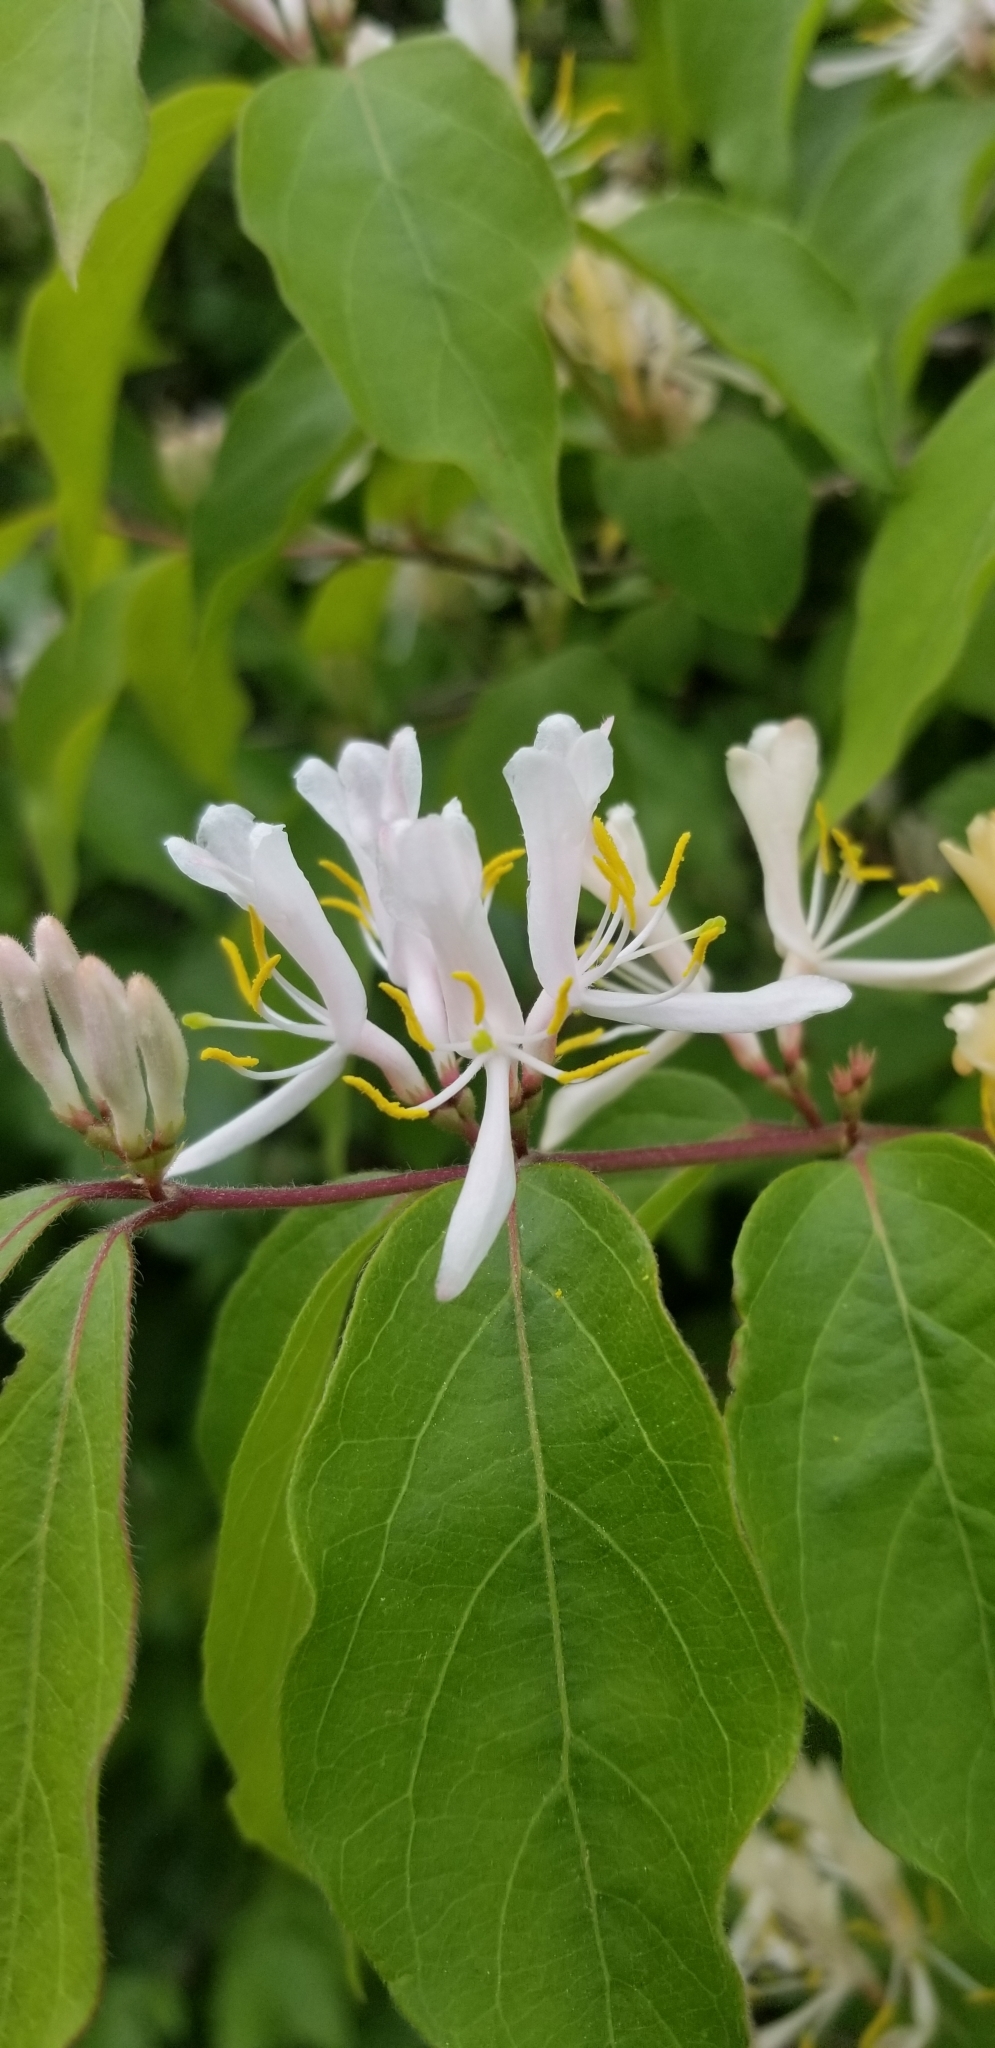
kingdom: Plantae
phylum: Tracheophyta
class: Magnoliopsida
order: Dipsacales
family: Caprifoliaceae
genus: Lonicera
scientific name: Lonicera maackii
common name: Amur honeysuckle
